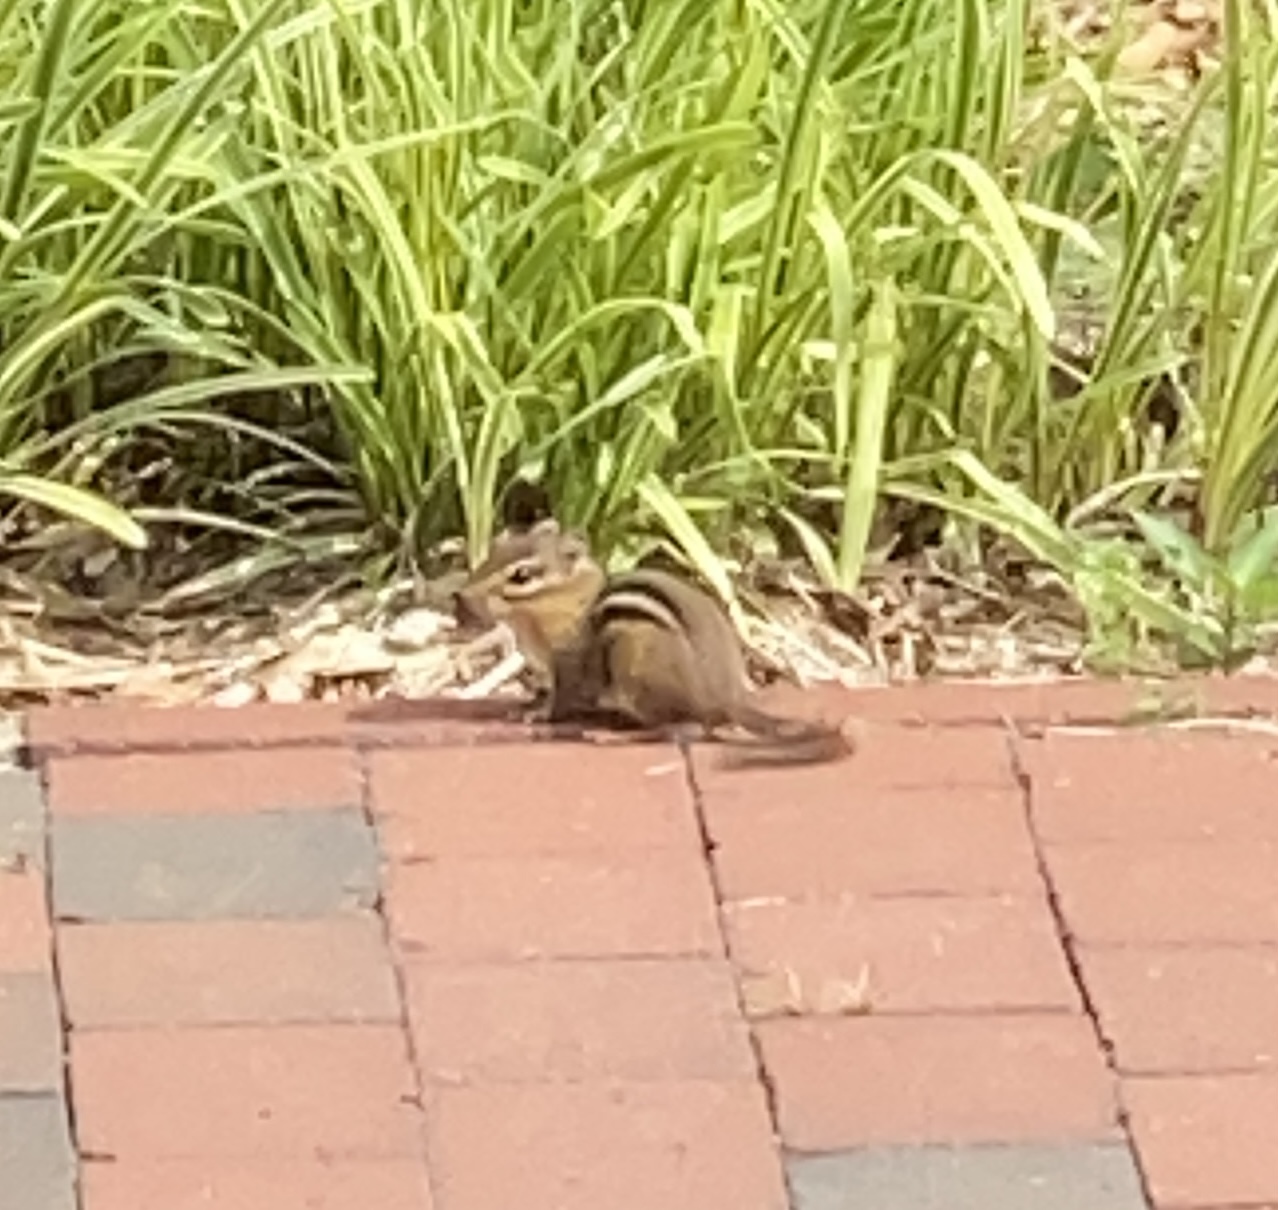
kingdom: Animalia
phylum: Chordata
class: Mammalia
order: Rodentia
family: Sciuridae
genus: Tamias
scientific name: Tamias striatus
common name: Eastern chipmunk
